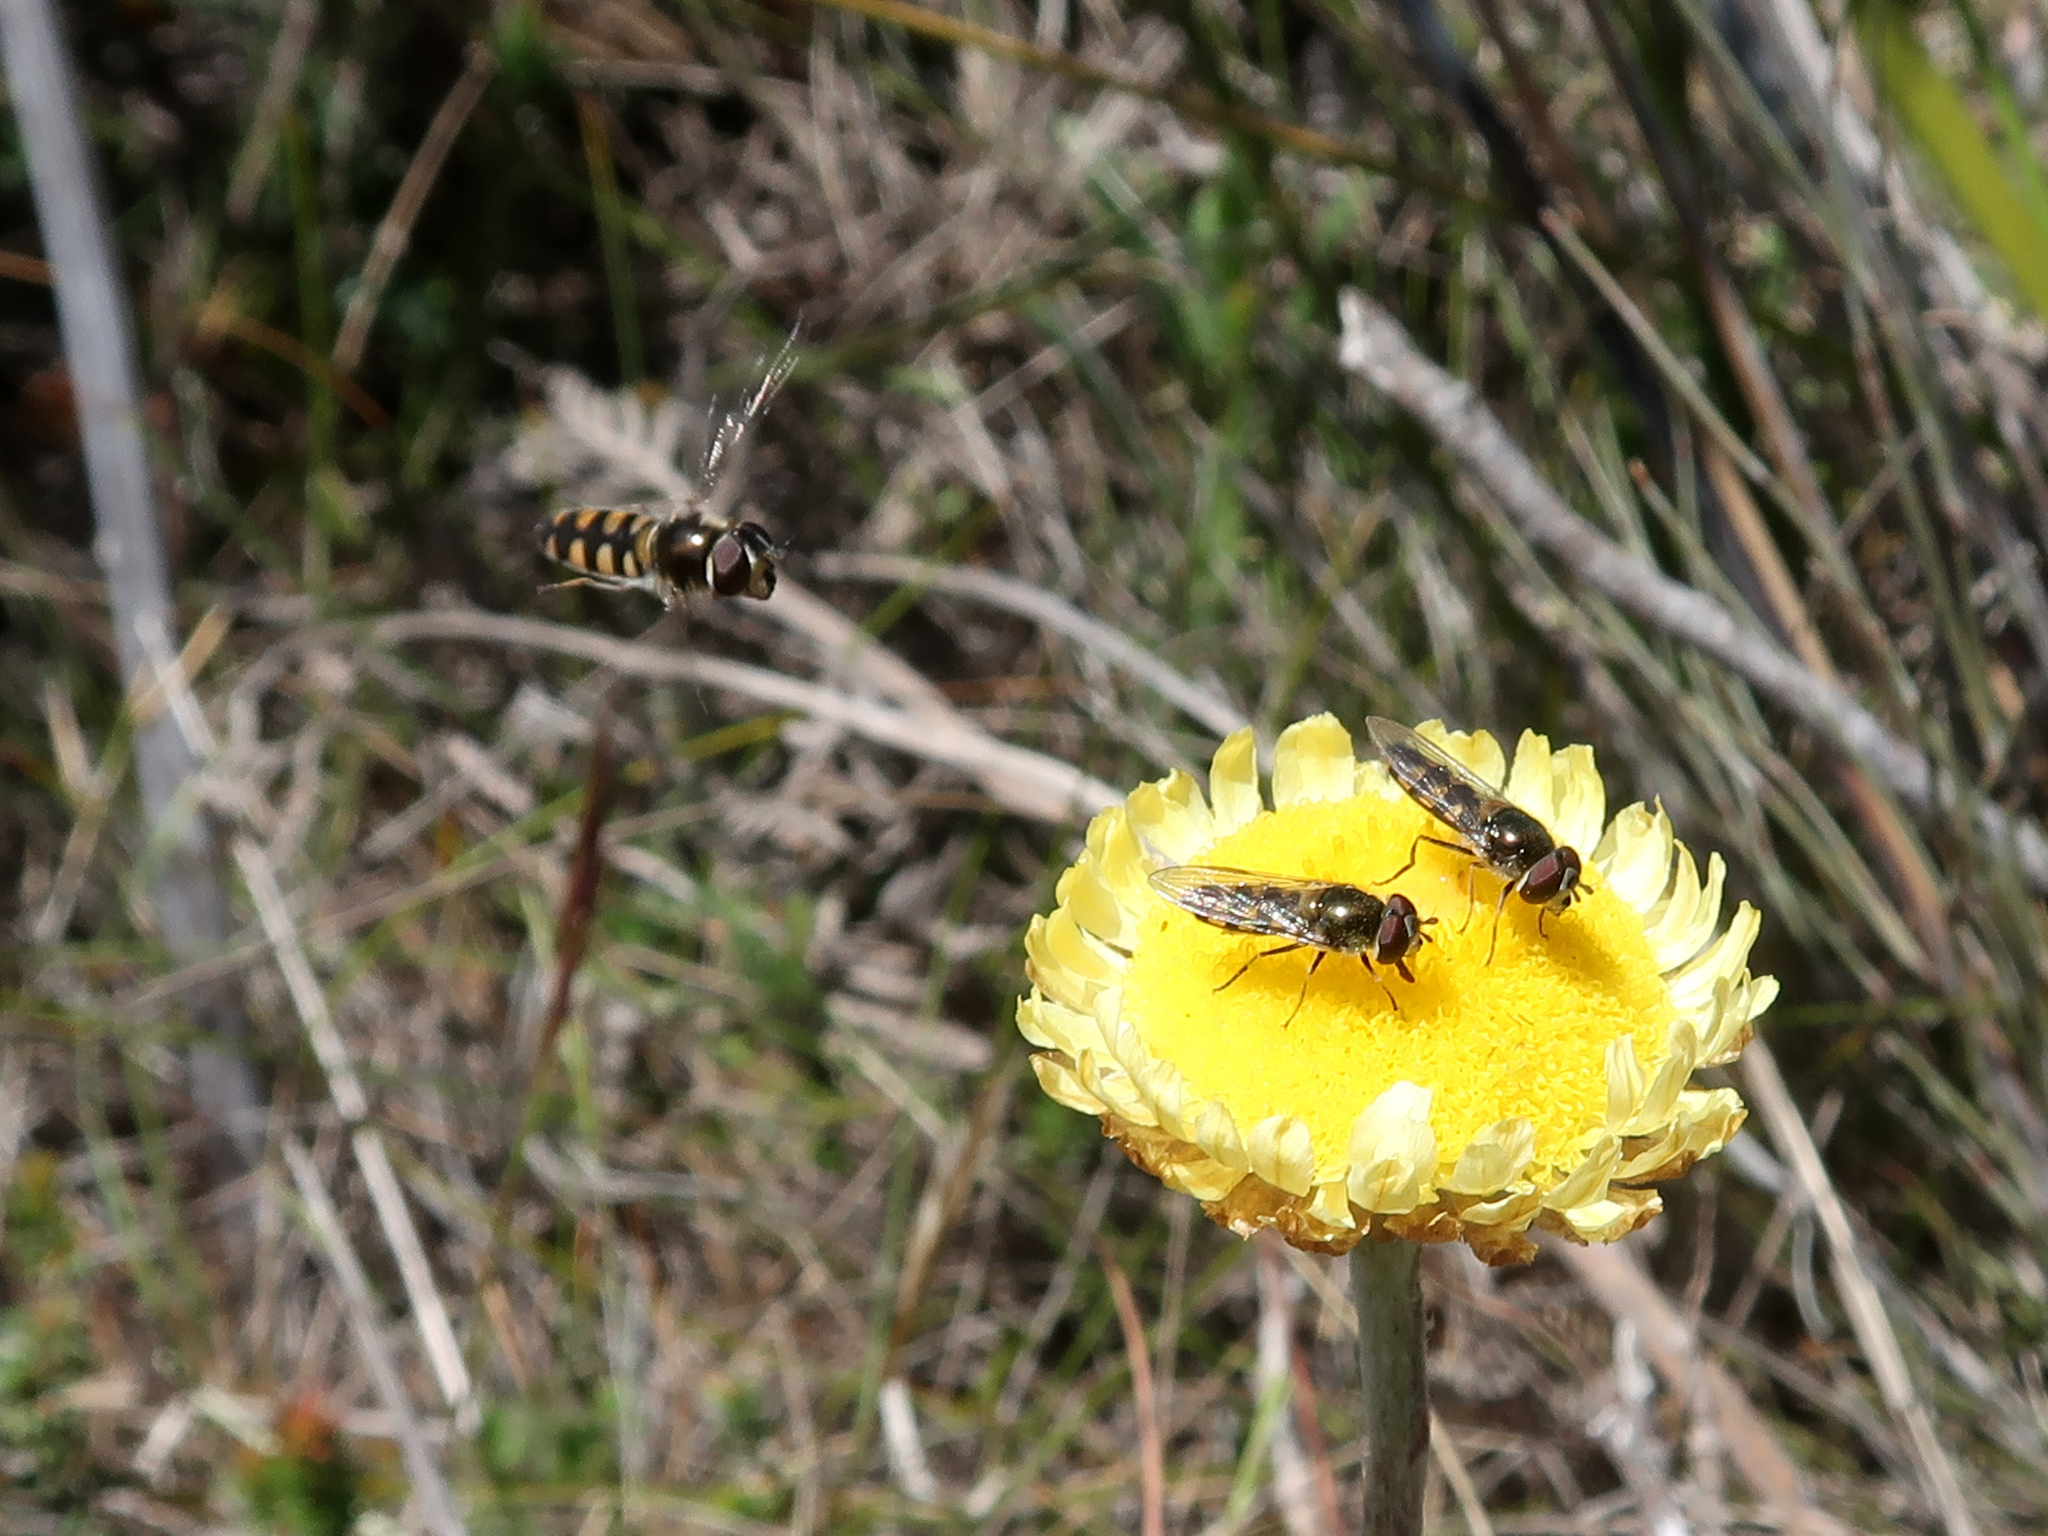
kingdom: Animalia
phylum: Arthropoda
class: Insecta
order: Diptera
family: Syrphidae
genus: Melangyna
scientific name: Melangyna viridiceps
